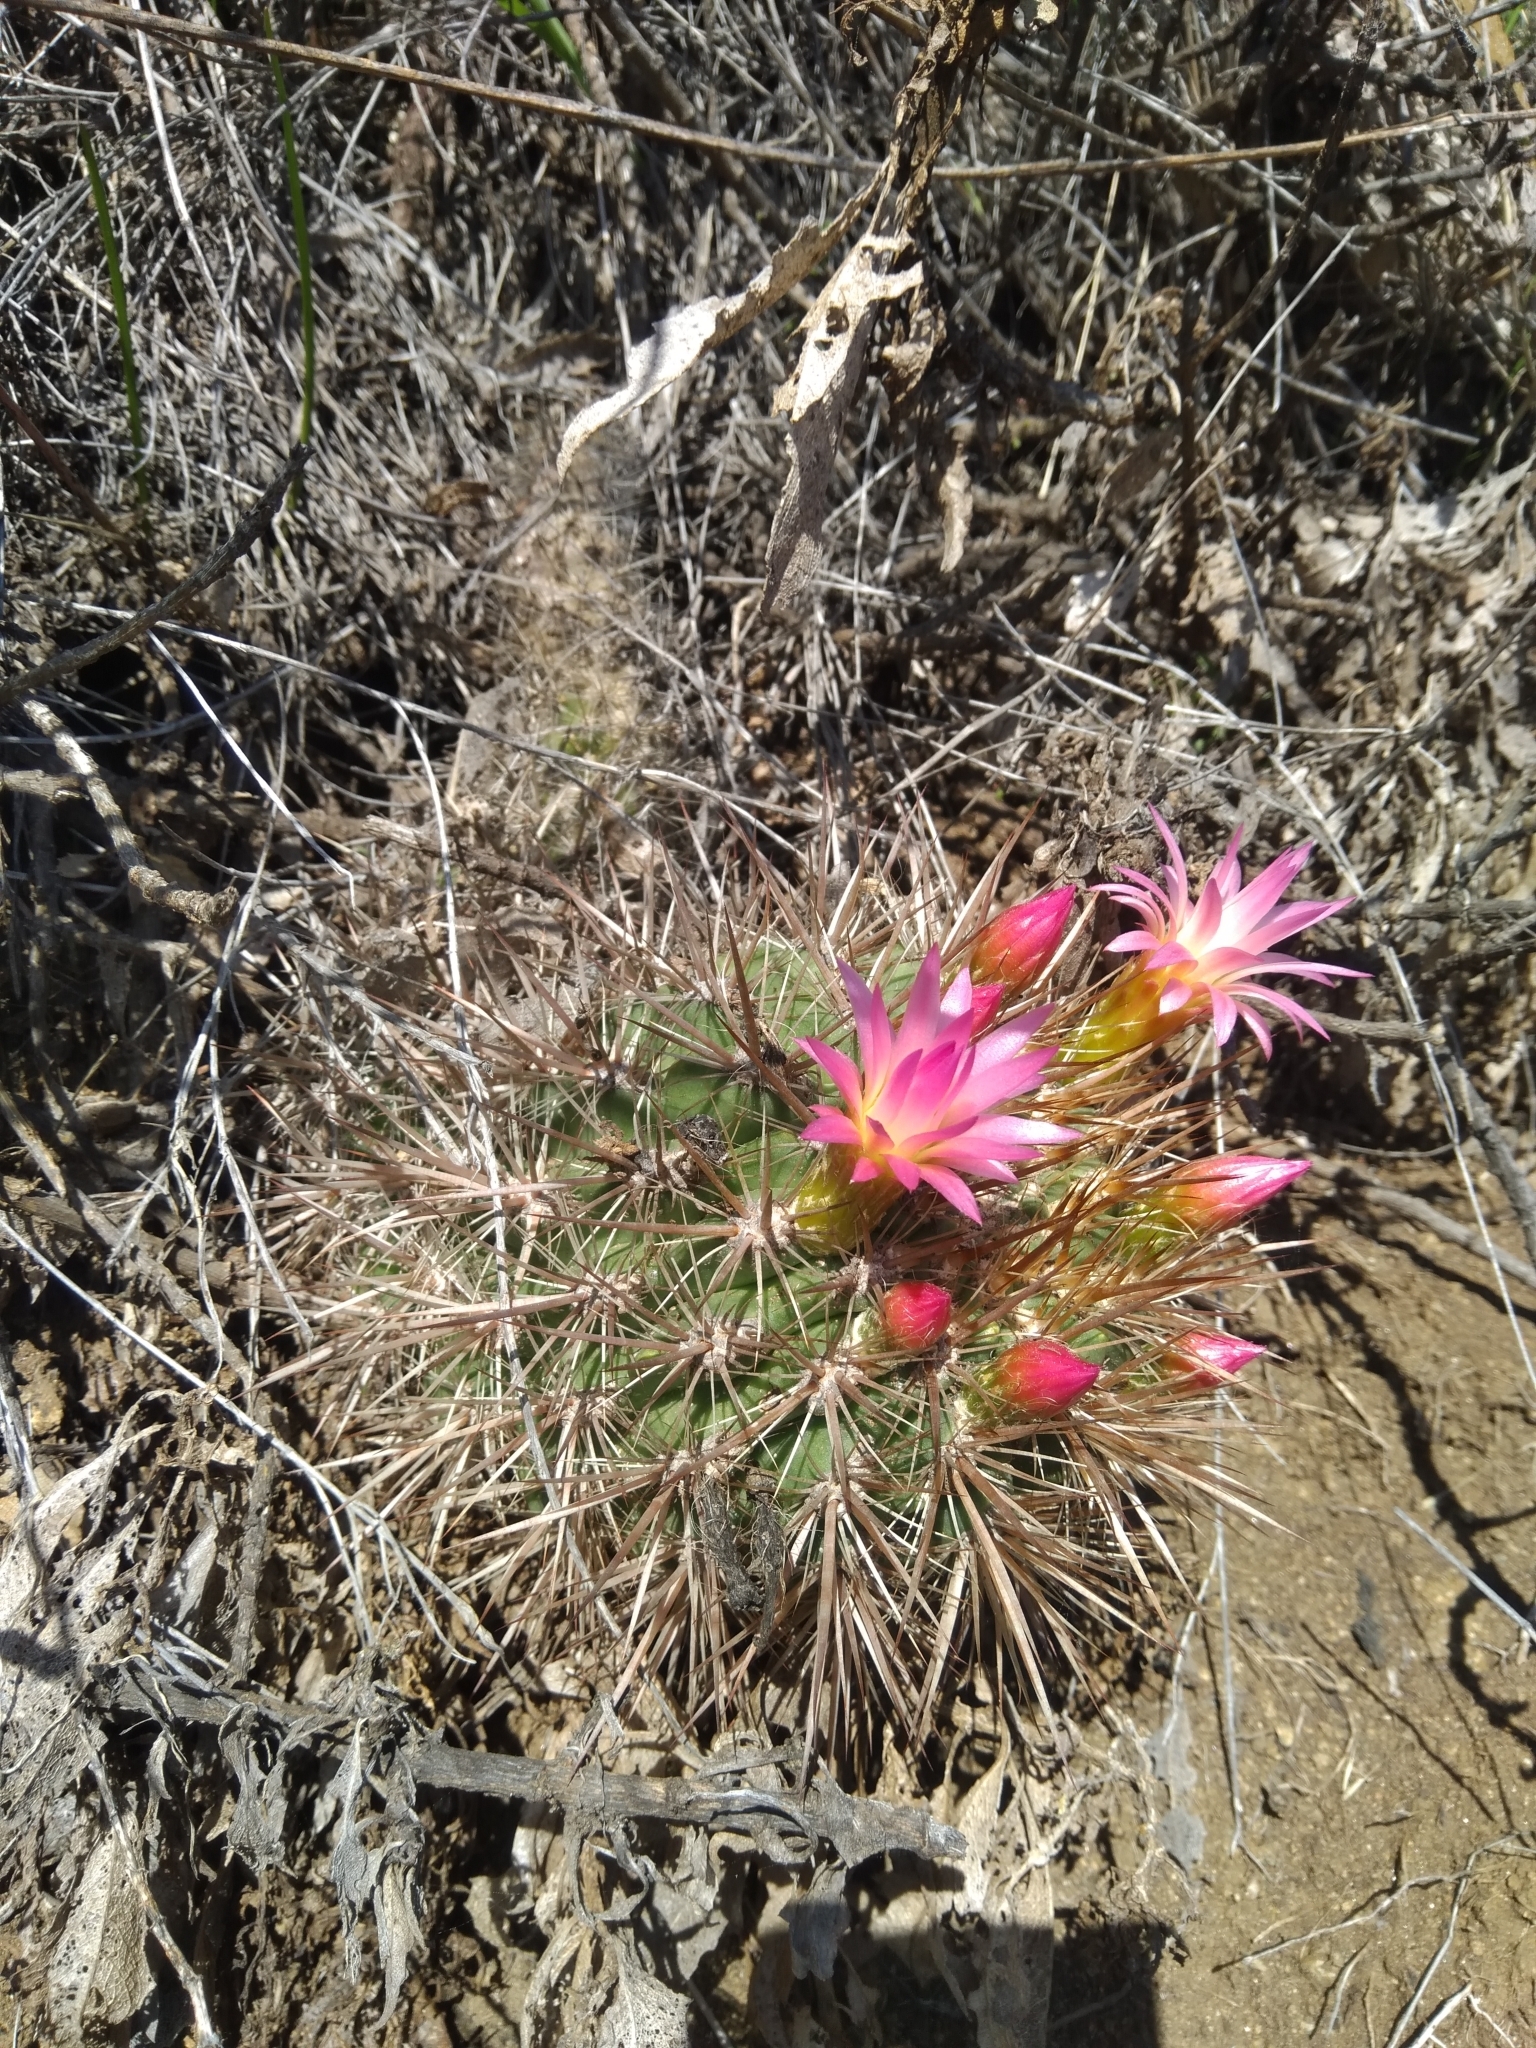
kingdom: Plantae
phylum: Tracheophyta
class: Magnoliopsida
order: Caryophyllales
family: Cactaceae
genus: Eriosyce
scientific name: Eriosyce subgibbosa
